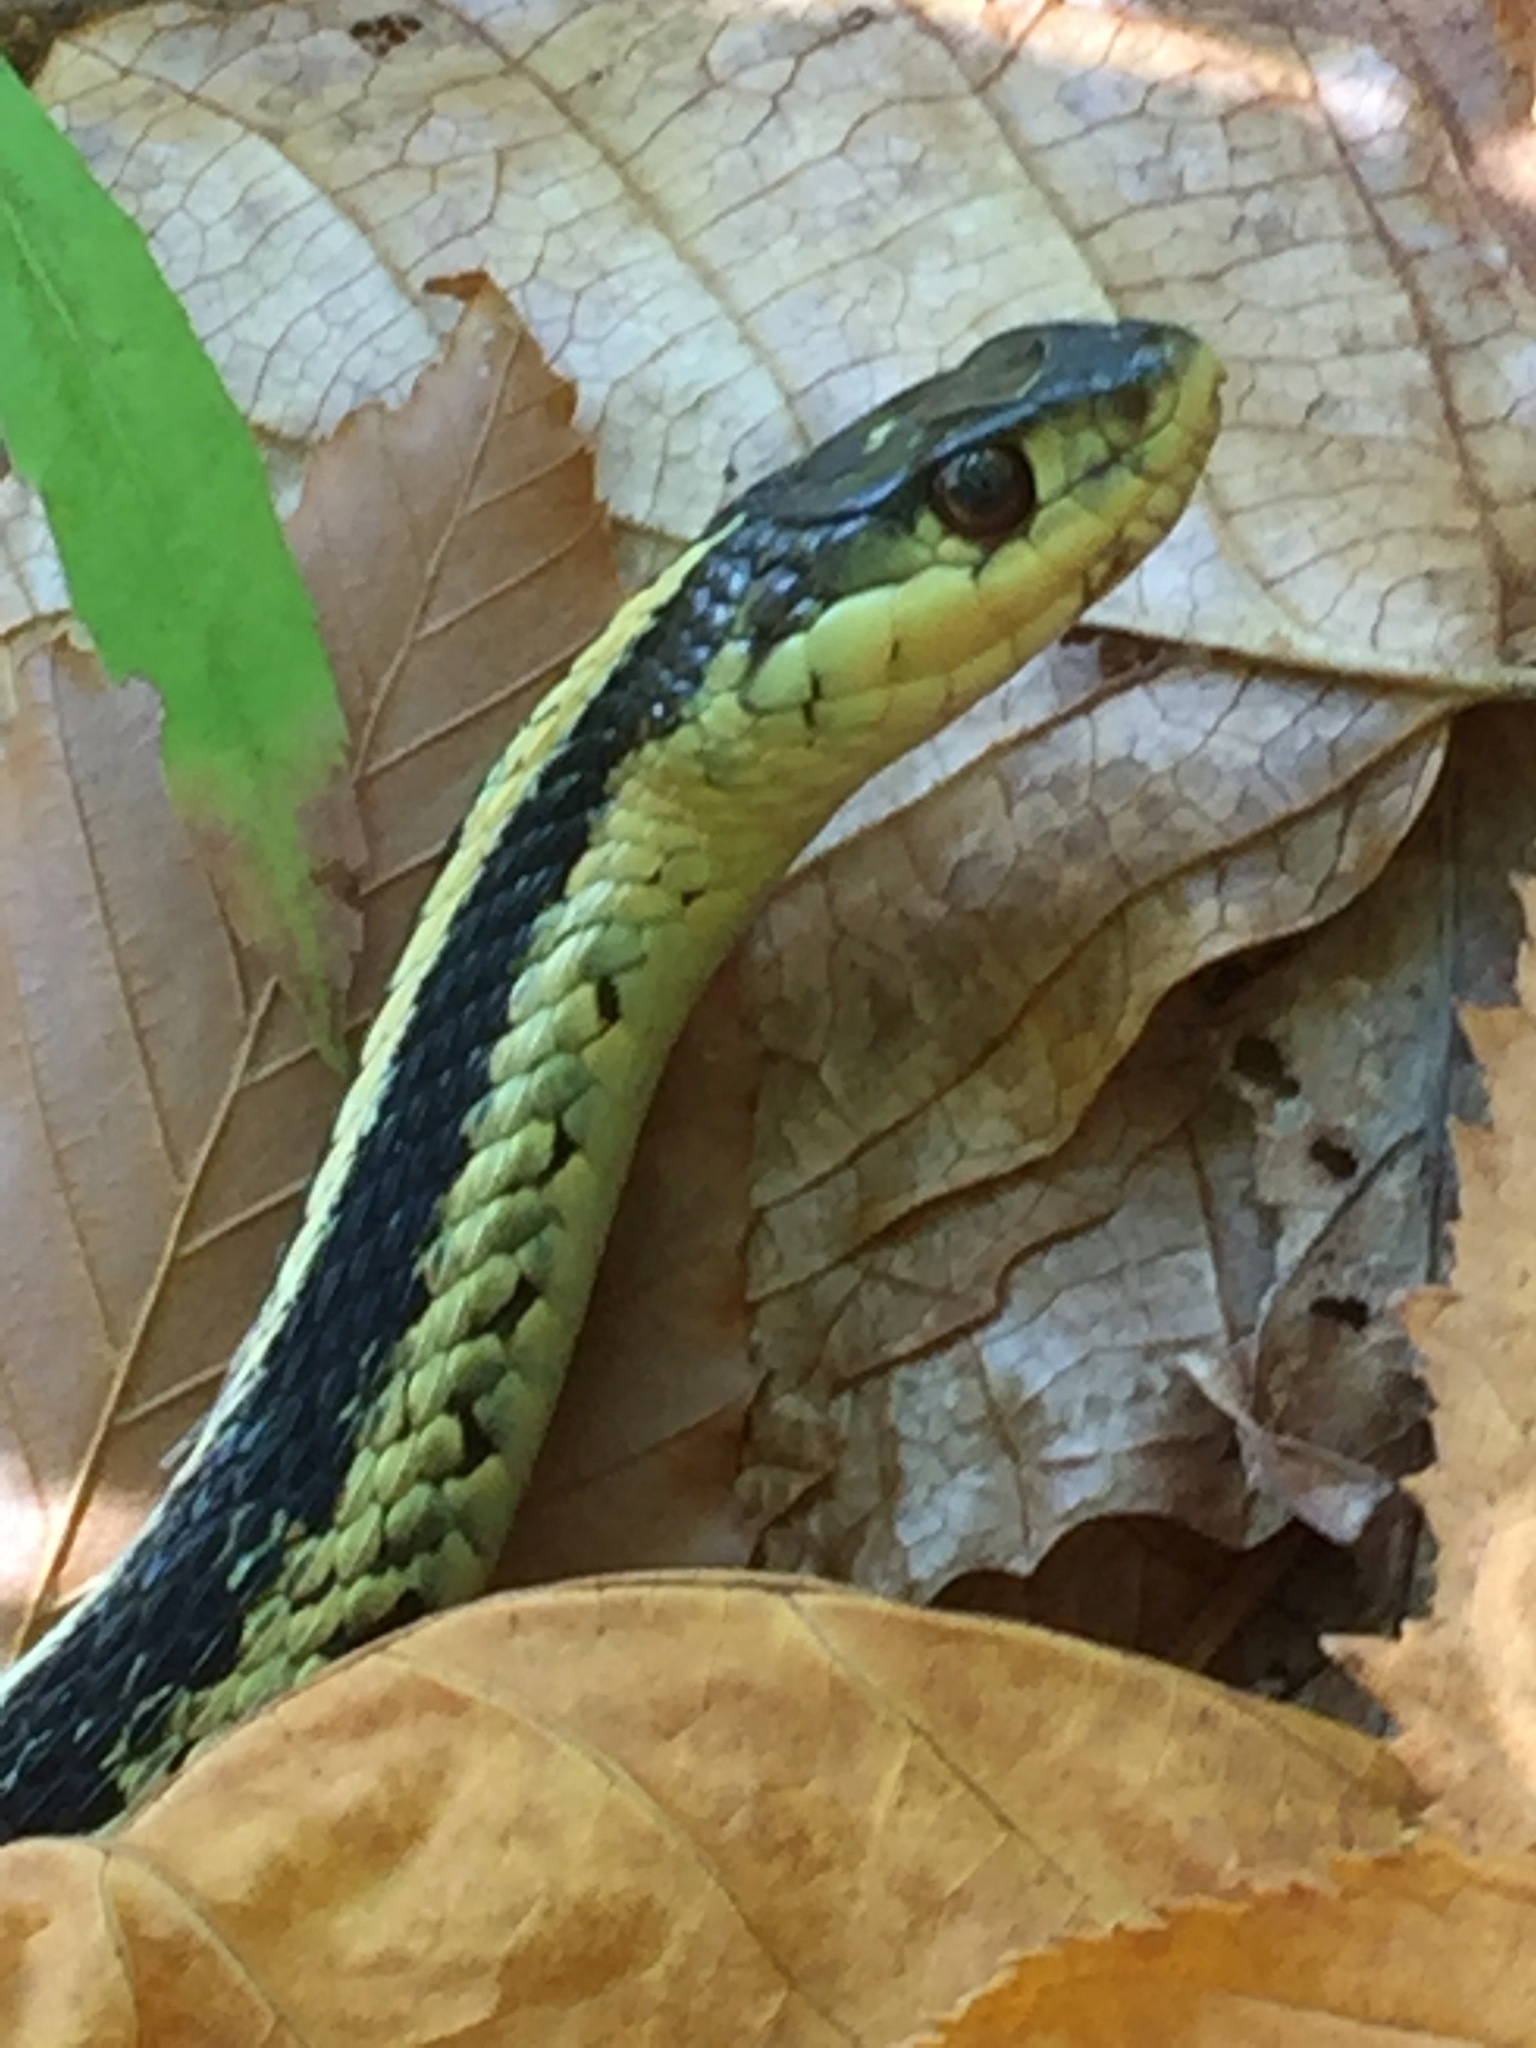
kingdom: Animalia
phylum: Chordata
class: Squamata
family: Colubridae
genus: Thamnophis
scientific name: Thamnophis sirtalis
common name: Common garter snake
